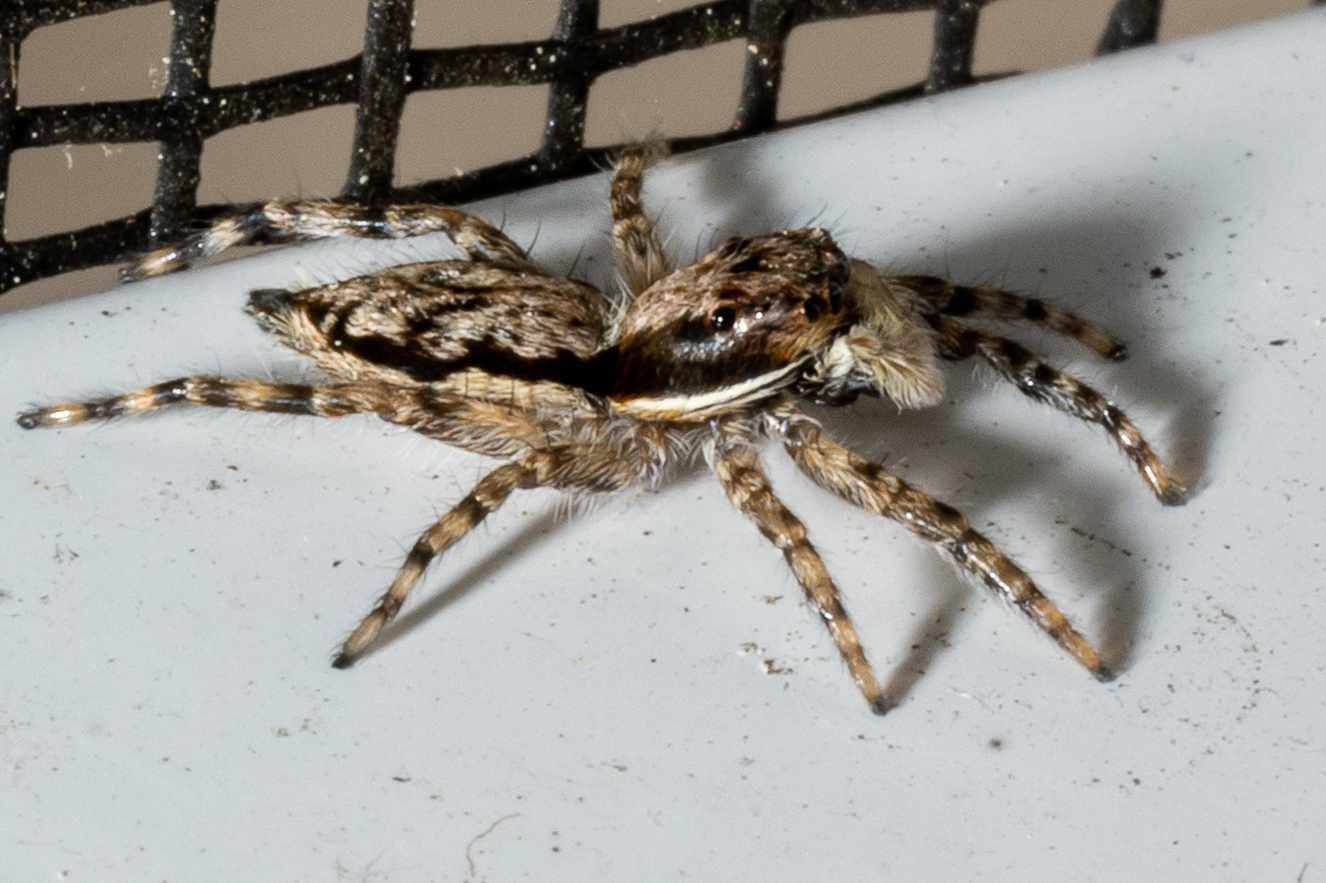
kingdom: Animalia
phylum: Arthropoda
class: Arachnida
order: Araneae
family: Salticidae
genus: Menemerus
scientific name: Menemerus bivittatus
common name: Gray wall jumper
